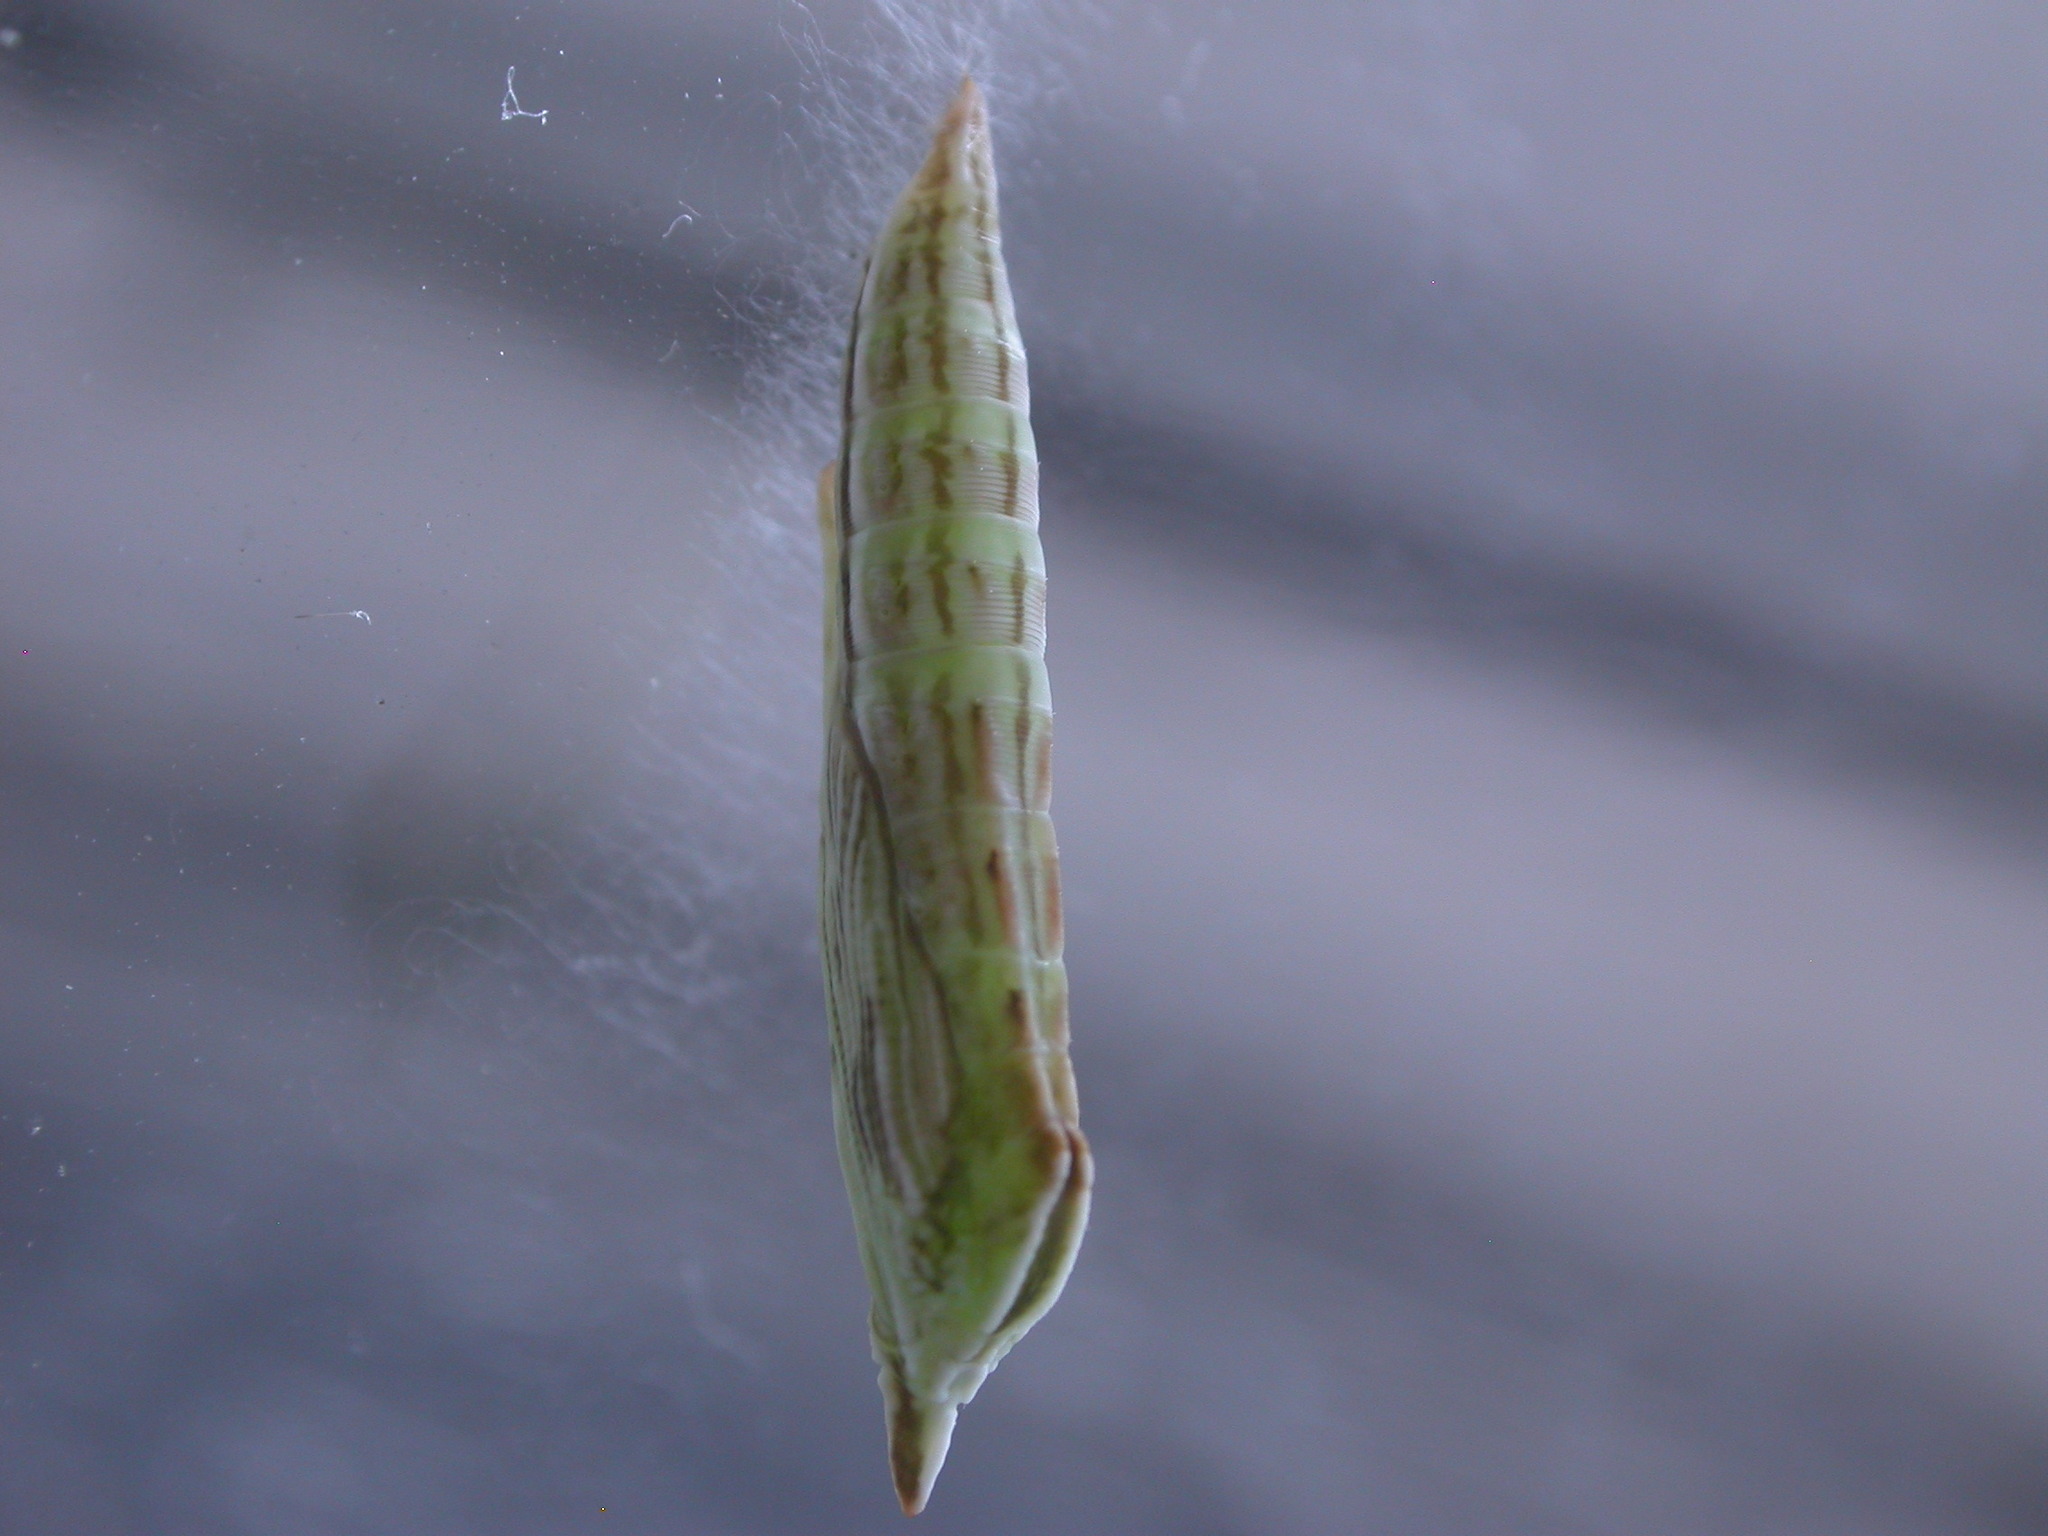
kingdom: Animalia
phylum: Arthropoda
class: Insecta
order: Lepidoptera
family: Pterophoridae
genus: Gillmeria
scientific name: Gillmeria ochrodactyla
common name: Tansy plume
